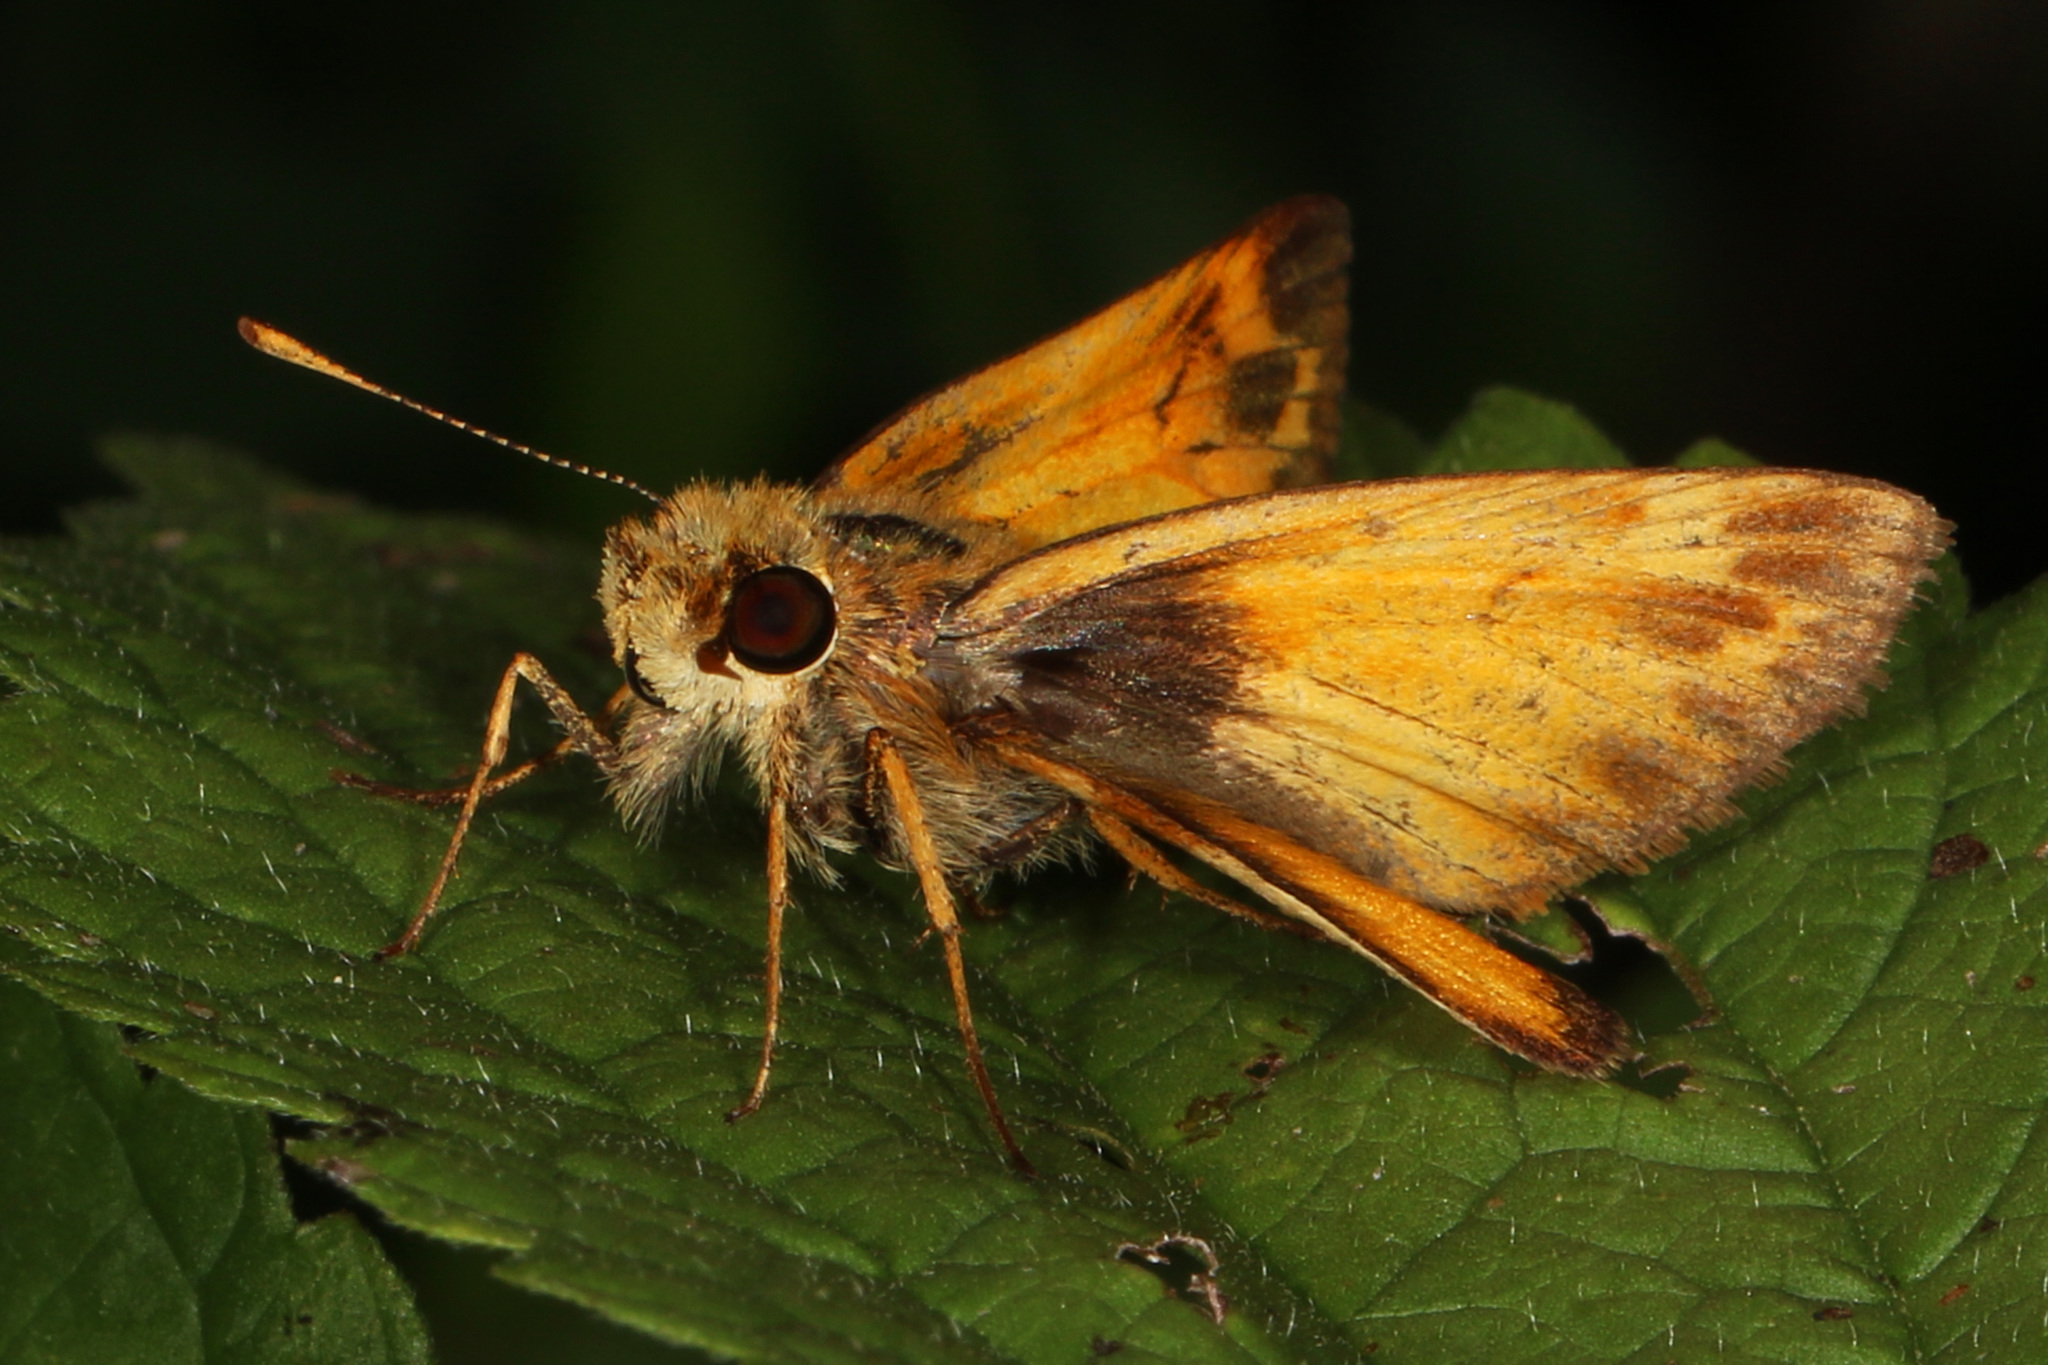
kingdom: Animalia
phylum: Arthropoda
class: Insecta
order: Lepidoptera
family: Hesperiidae
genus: Lon
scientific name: Lon zabulon
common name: Zabulon skipper
